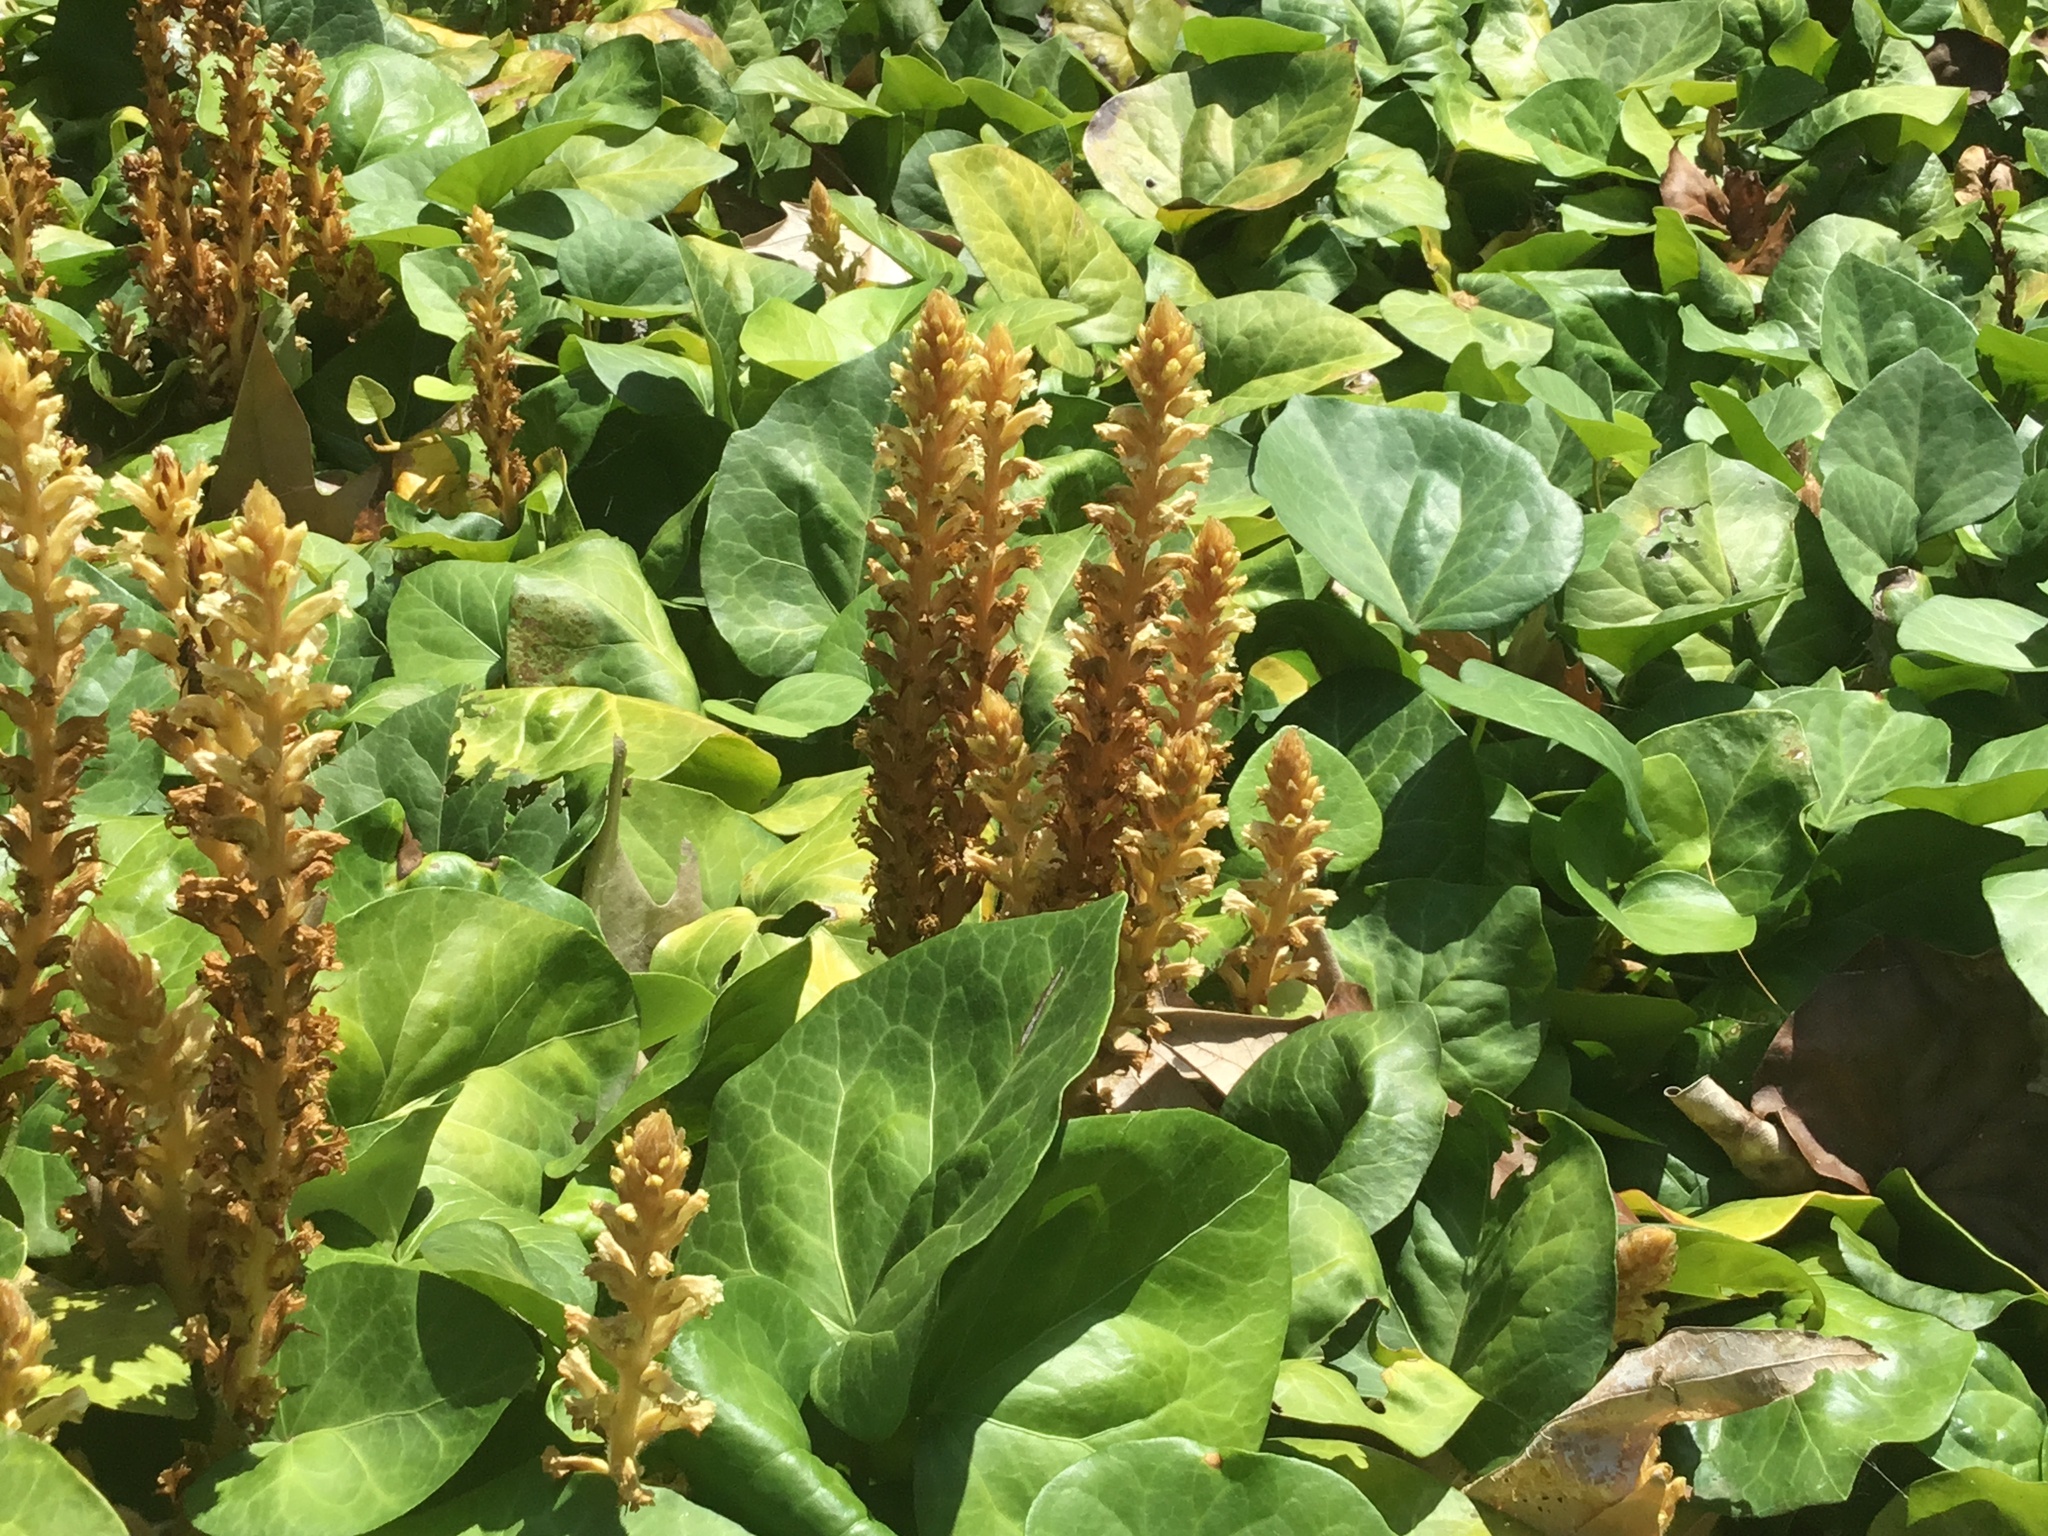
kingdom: Plantae
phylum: Tracheophyta
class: Magnoliopsida
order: Lamiales
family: Orobanchaceae
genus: Orobanche
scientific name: Orobanche hederae
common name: Ivy broomrape
